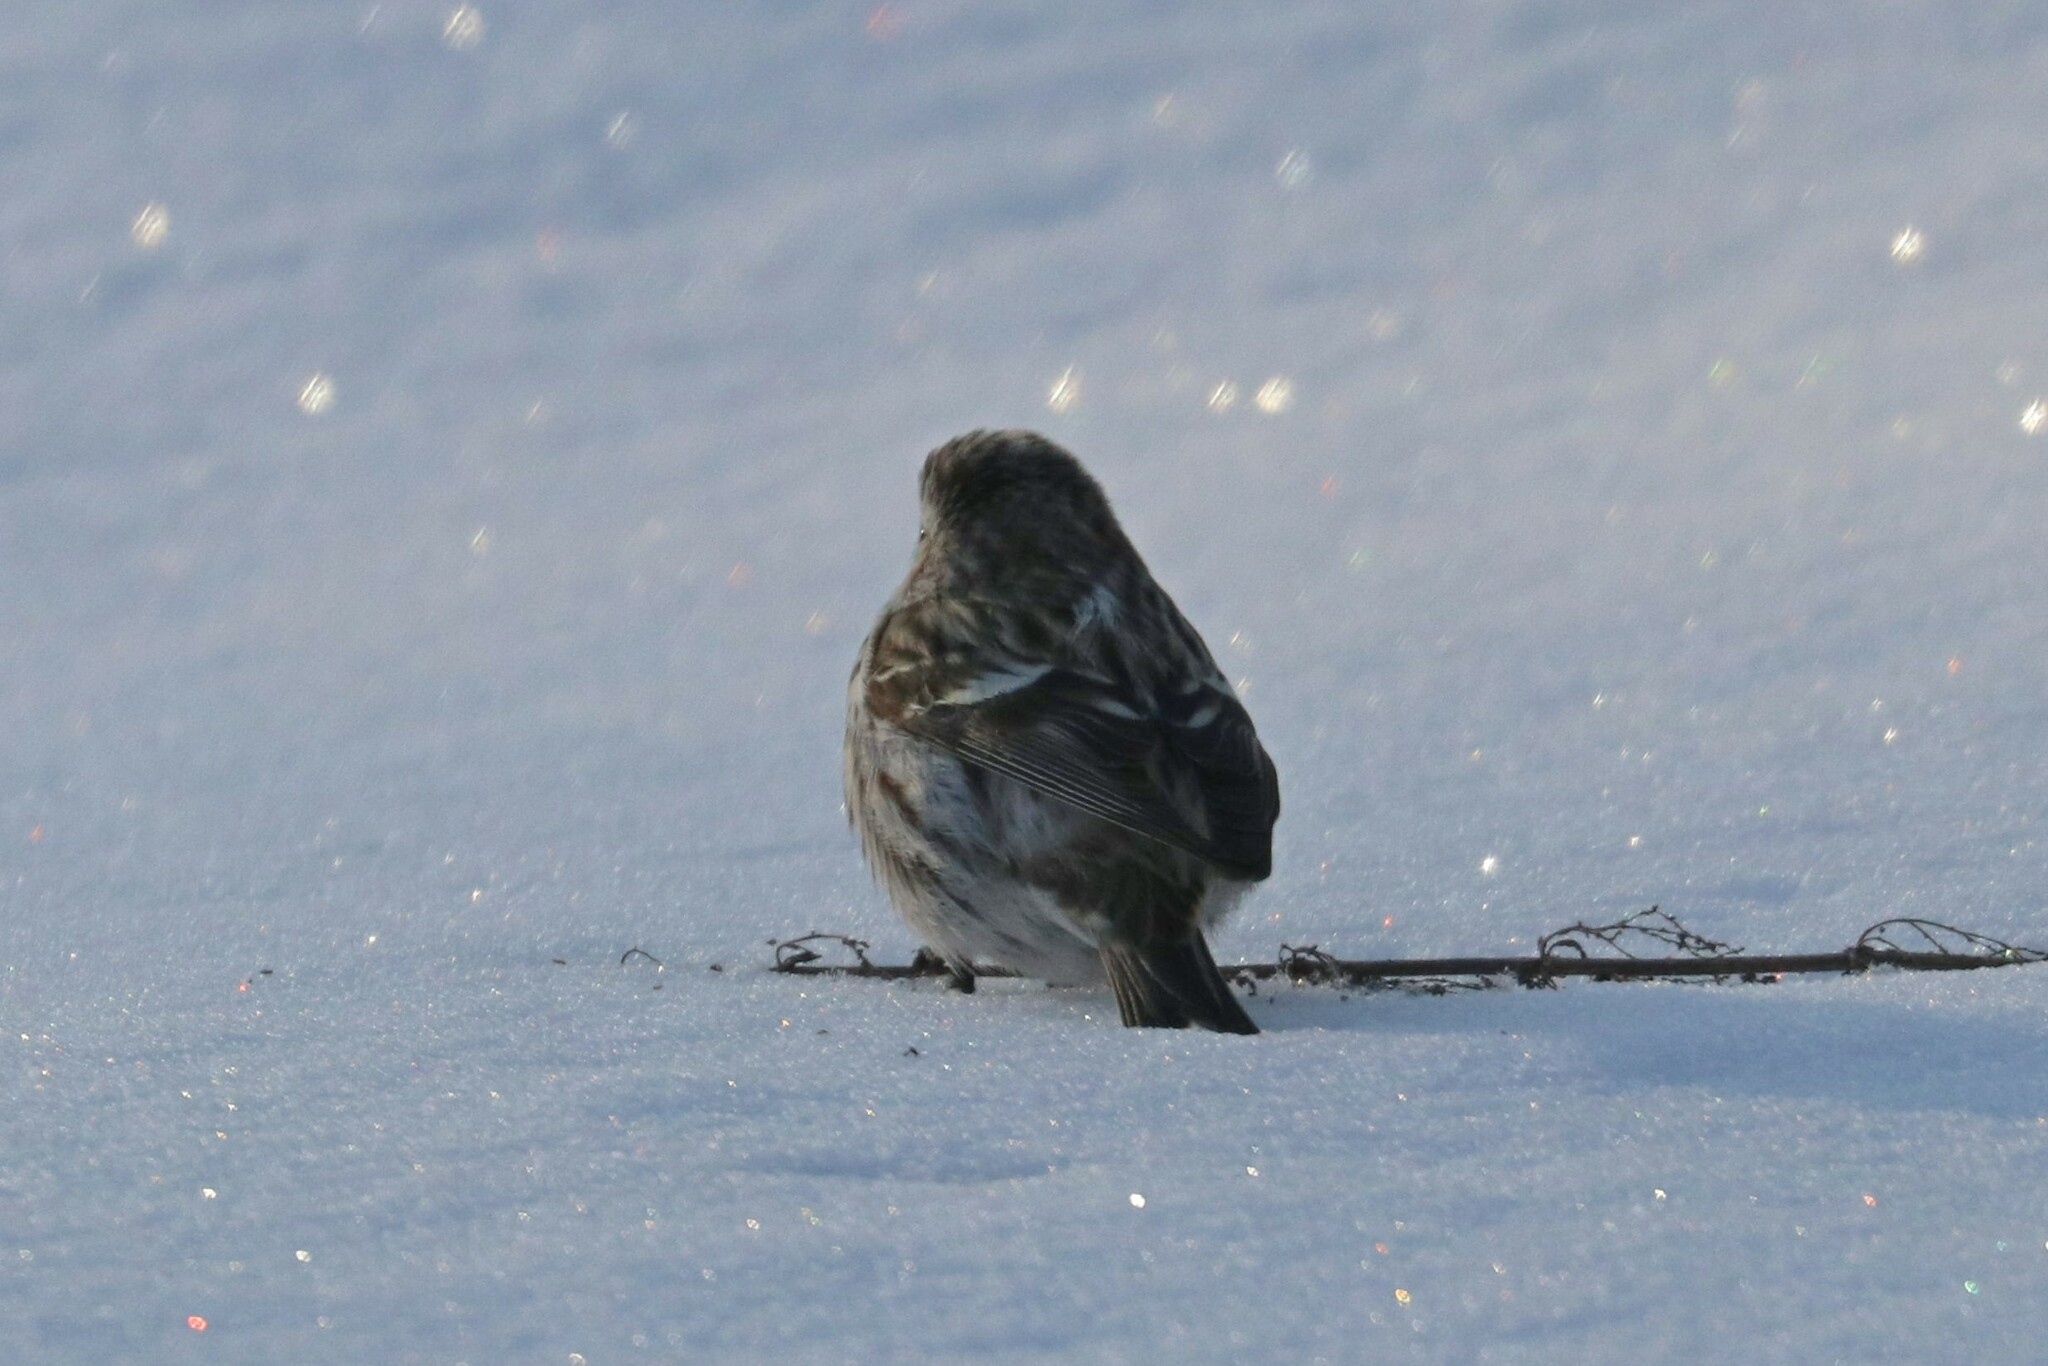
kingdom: Animalia
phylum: Chordata
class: Aves
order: Passeriformes
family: Fringillidae
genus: Acanthis
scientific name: Acanthis flammea
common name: Common redpoll
